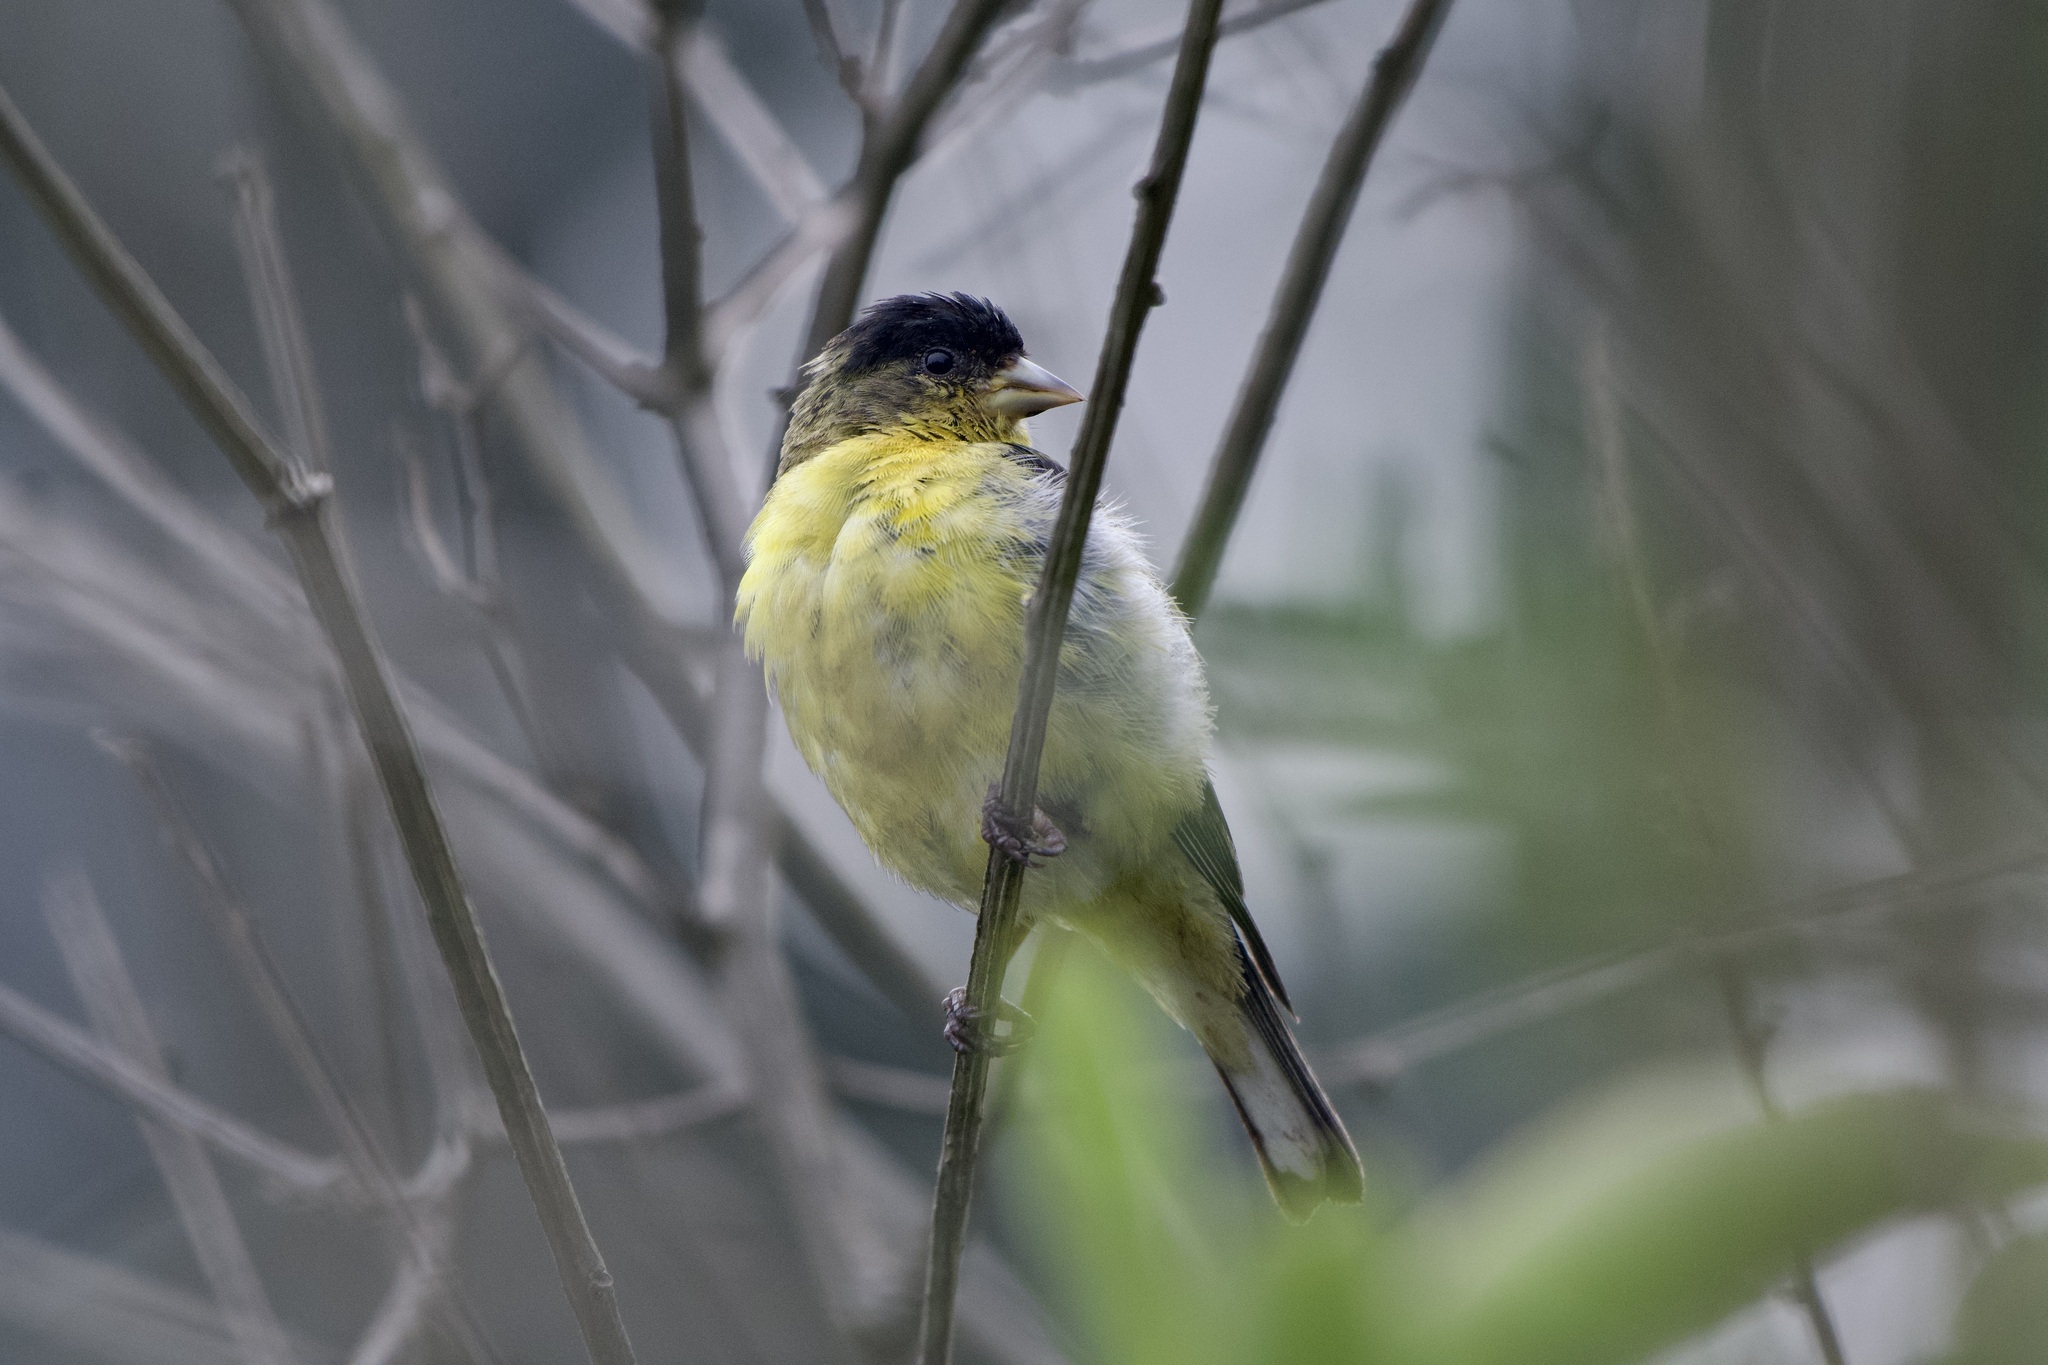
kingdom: Animalia
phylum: Chordata
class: Aves
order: Passeriformes
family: Fringillidae
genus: Spinus
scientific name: Spinus psaltria
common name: Lesser goldfinch
